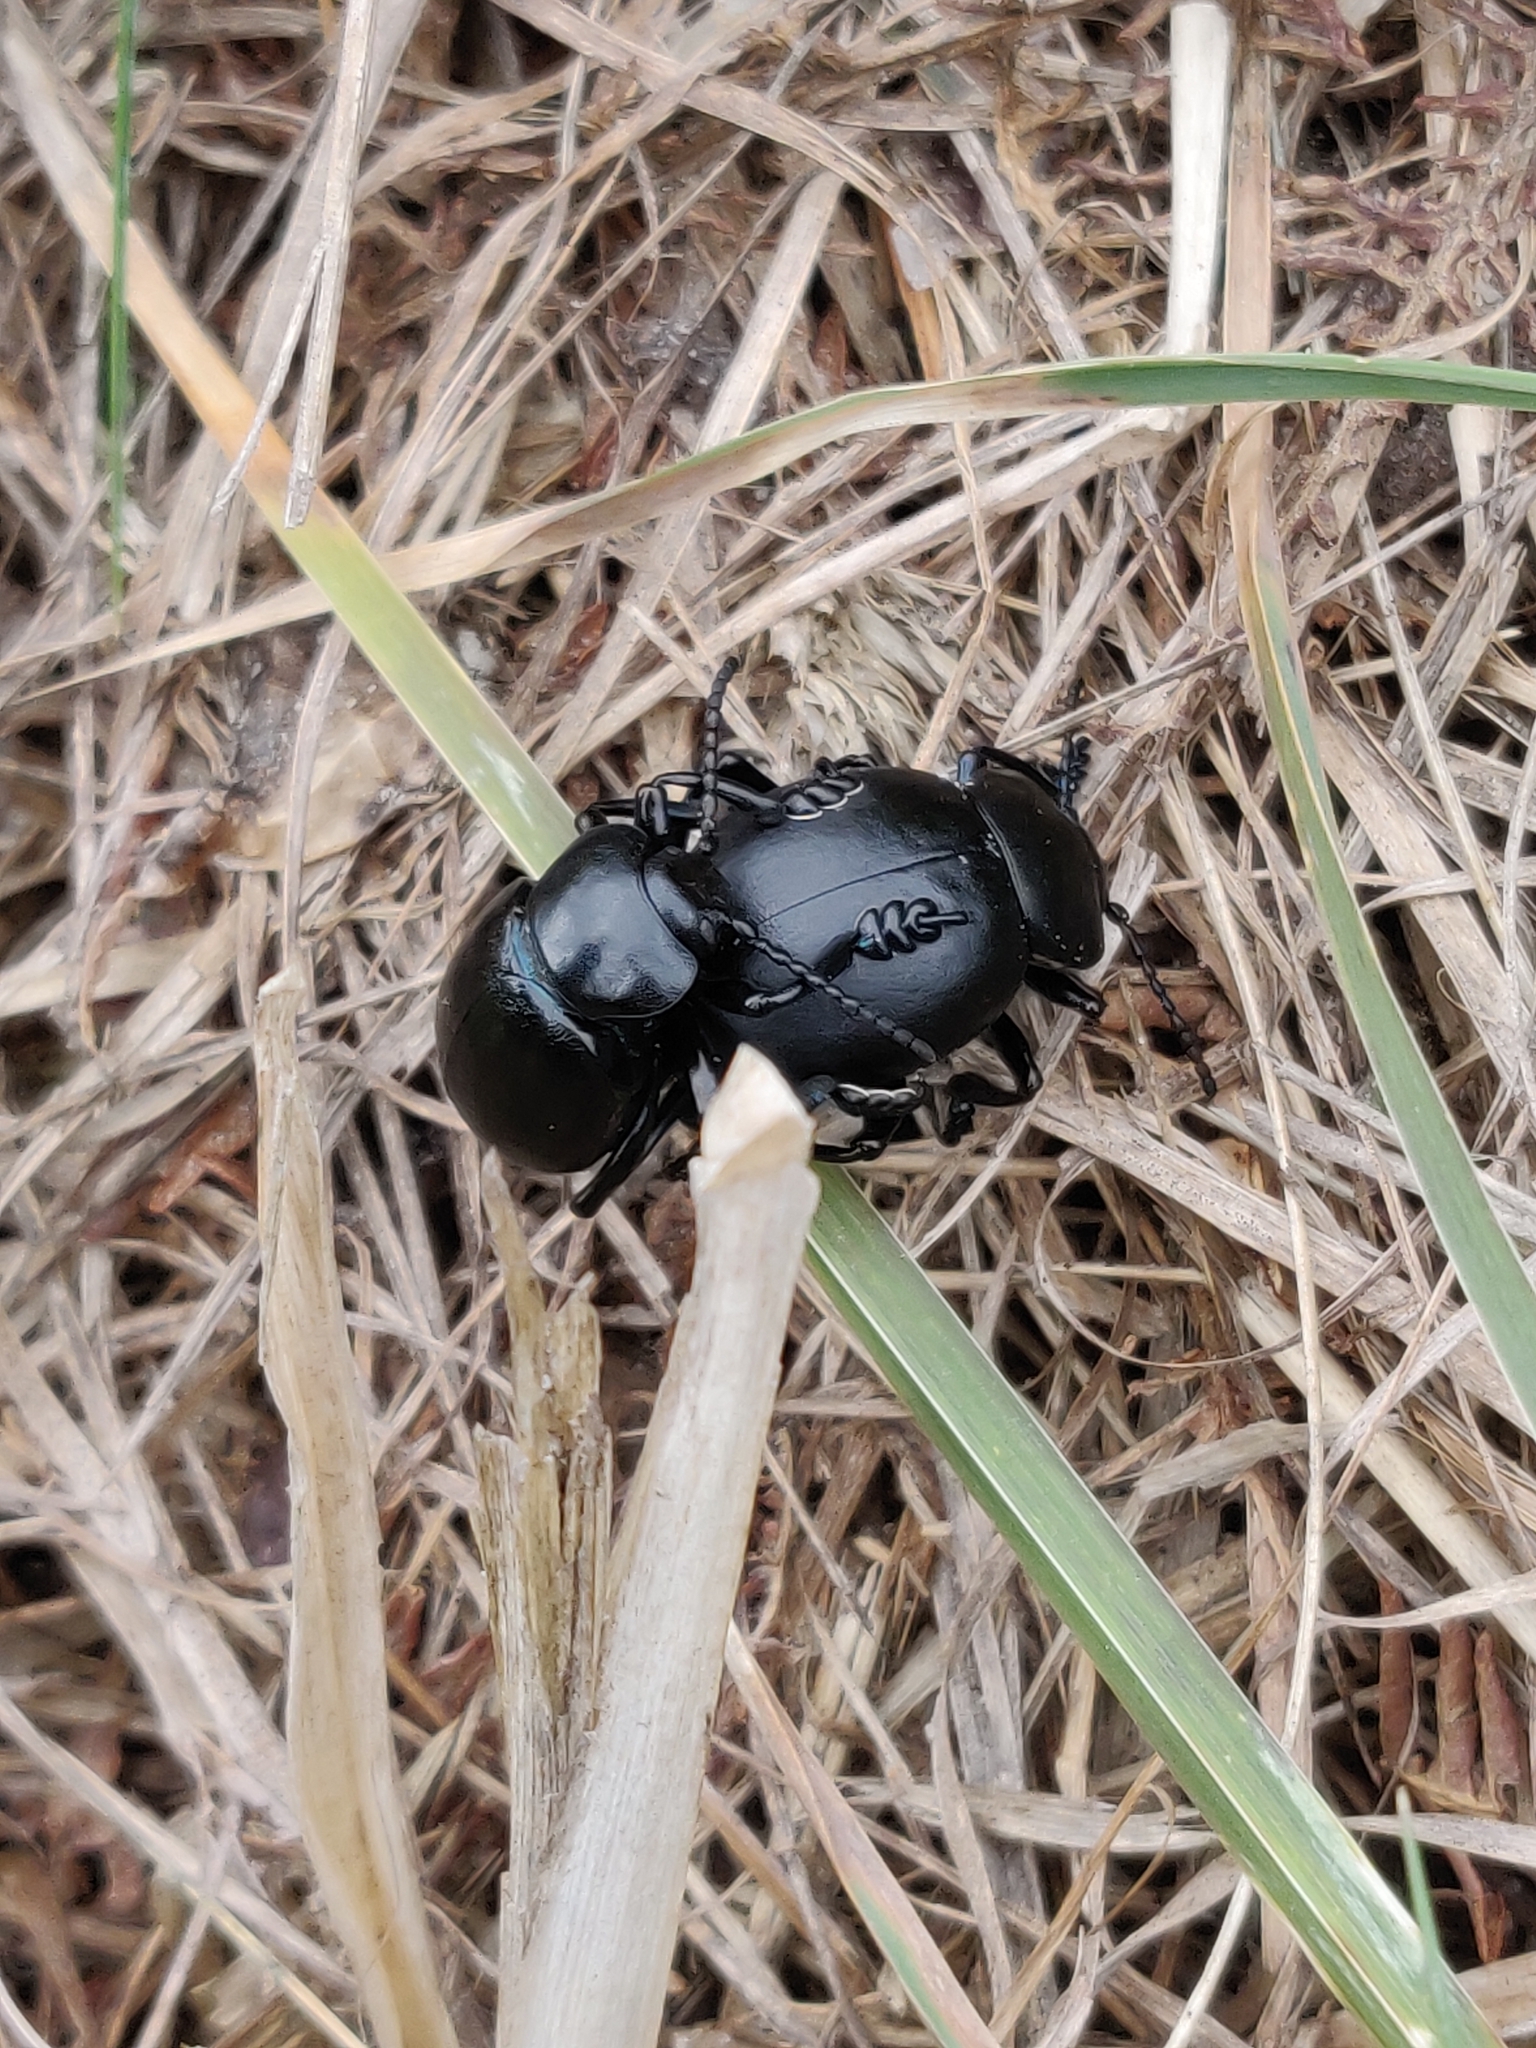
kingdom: Animalia
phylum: Arthropoda
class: Insecta
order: Coleoptera
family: Chrysomelidae
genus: Timarcha
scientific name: Timarcha tenebricosa
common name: Bloody-nosed beetle
